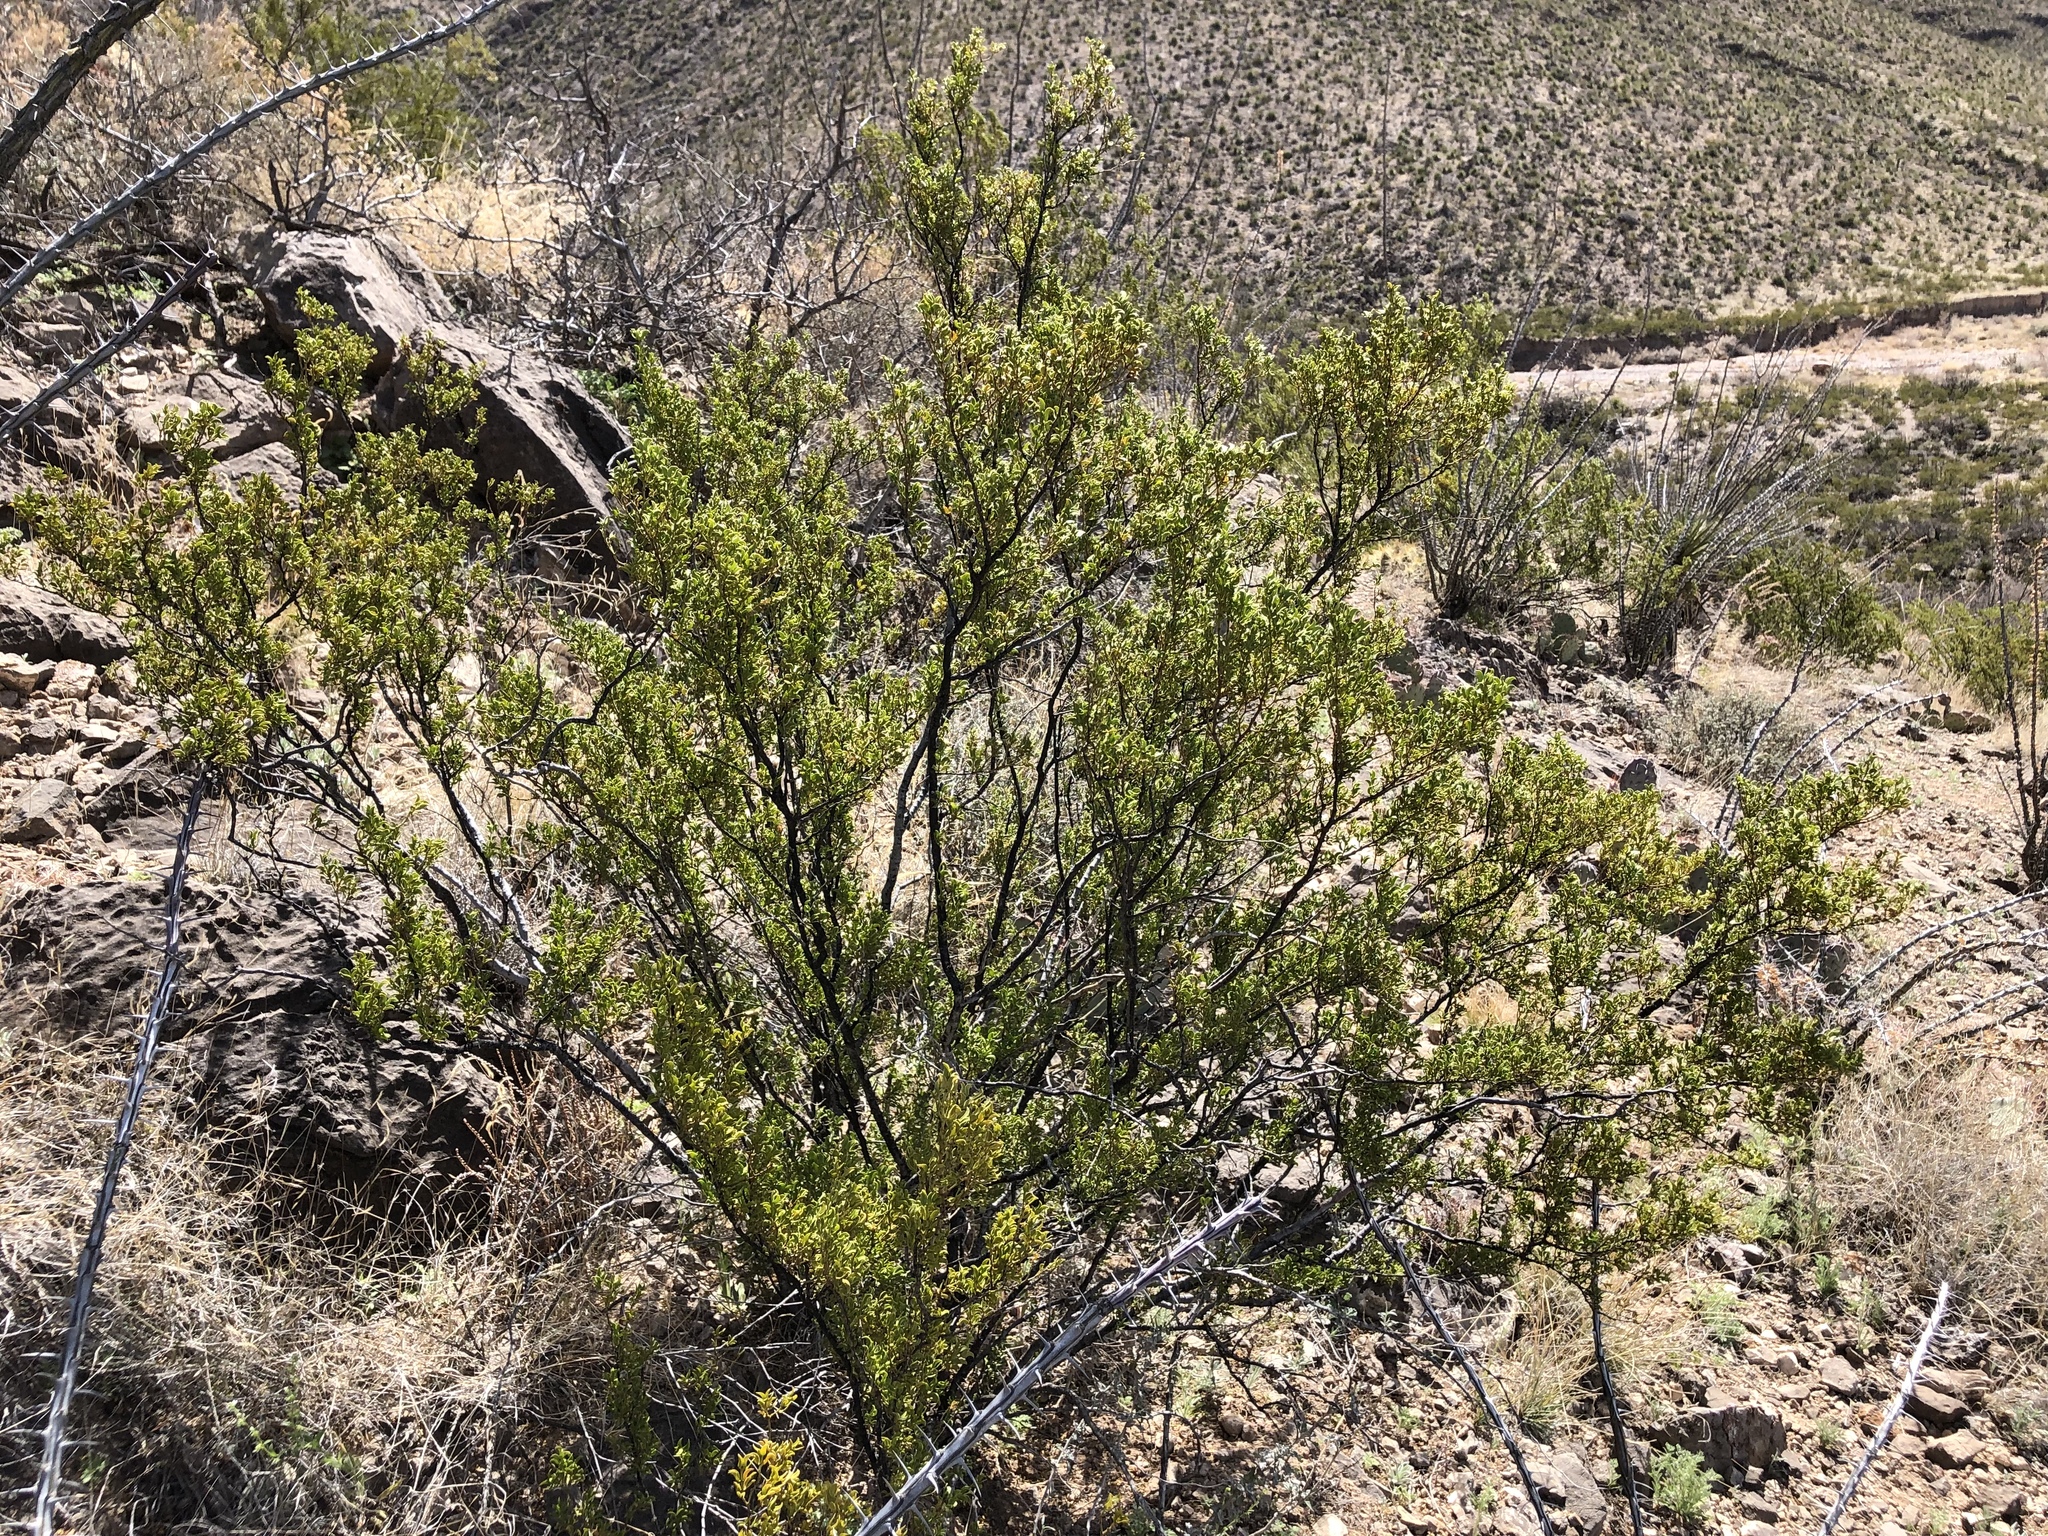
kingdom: Plantae
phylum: Tracheophyta
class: Magnoliopsida
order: Zygophyllales
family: Zygophyllaceae
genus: Larrea
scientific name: Larrea tridentata
